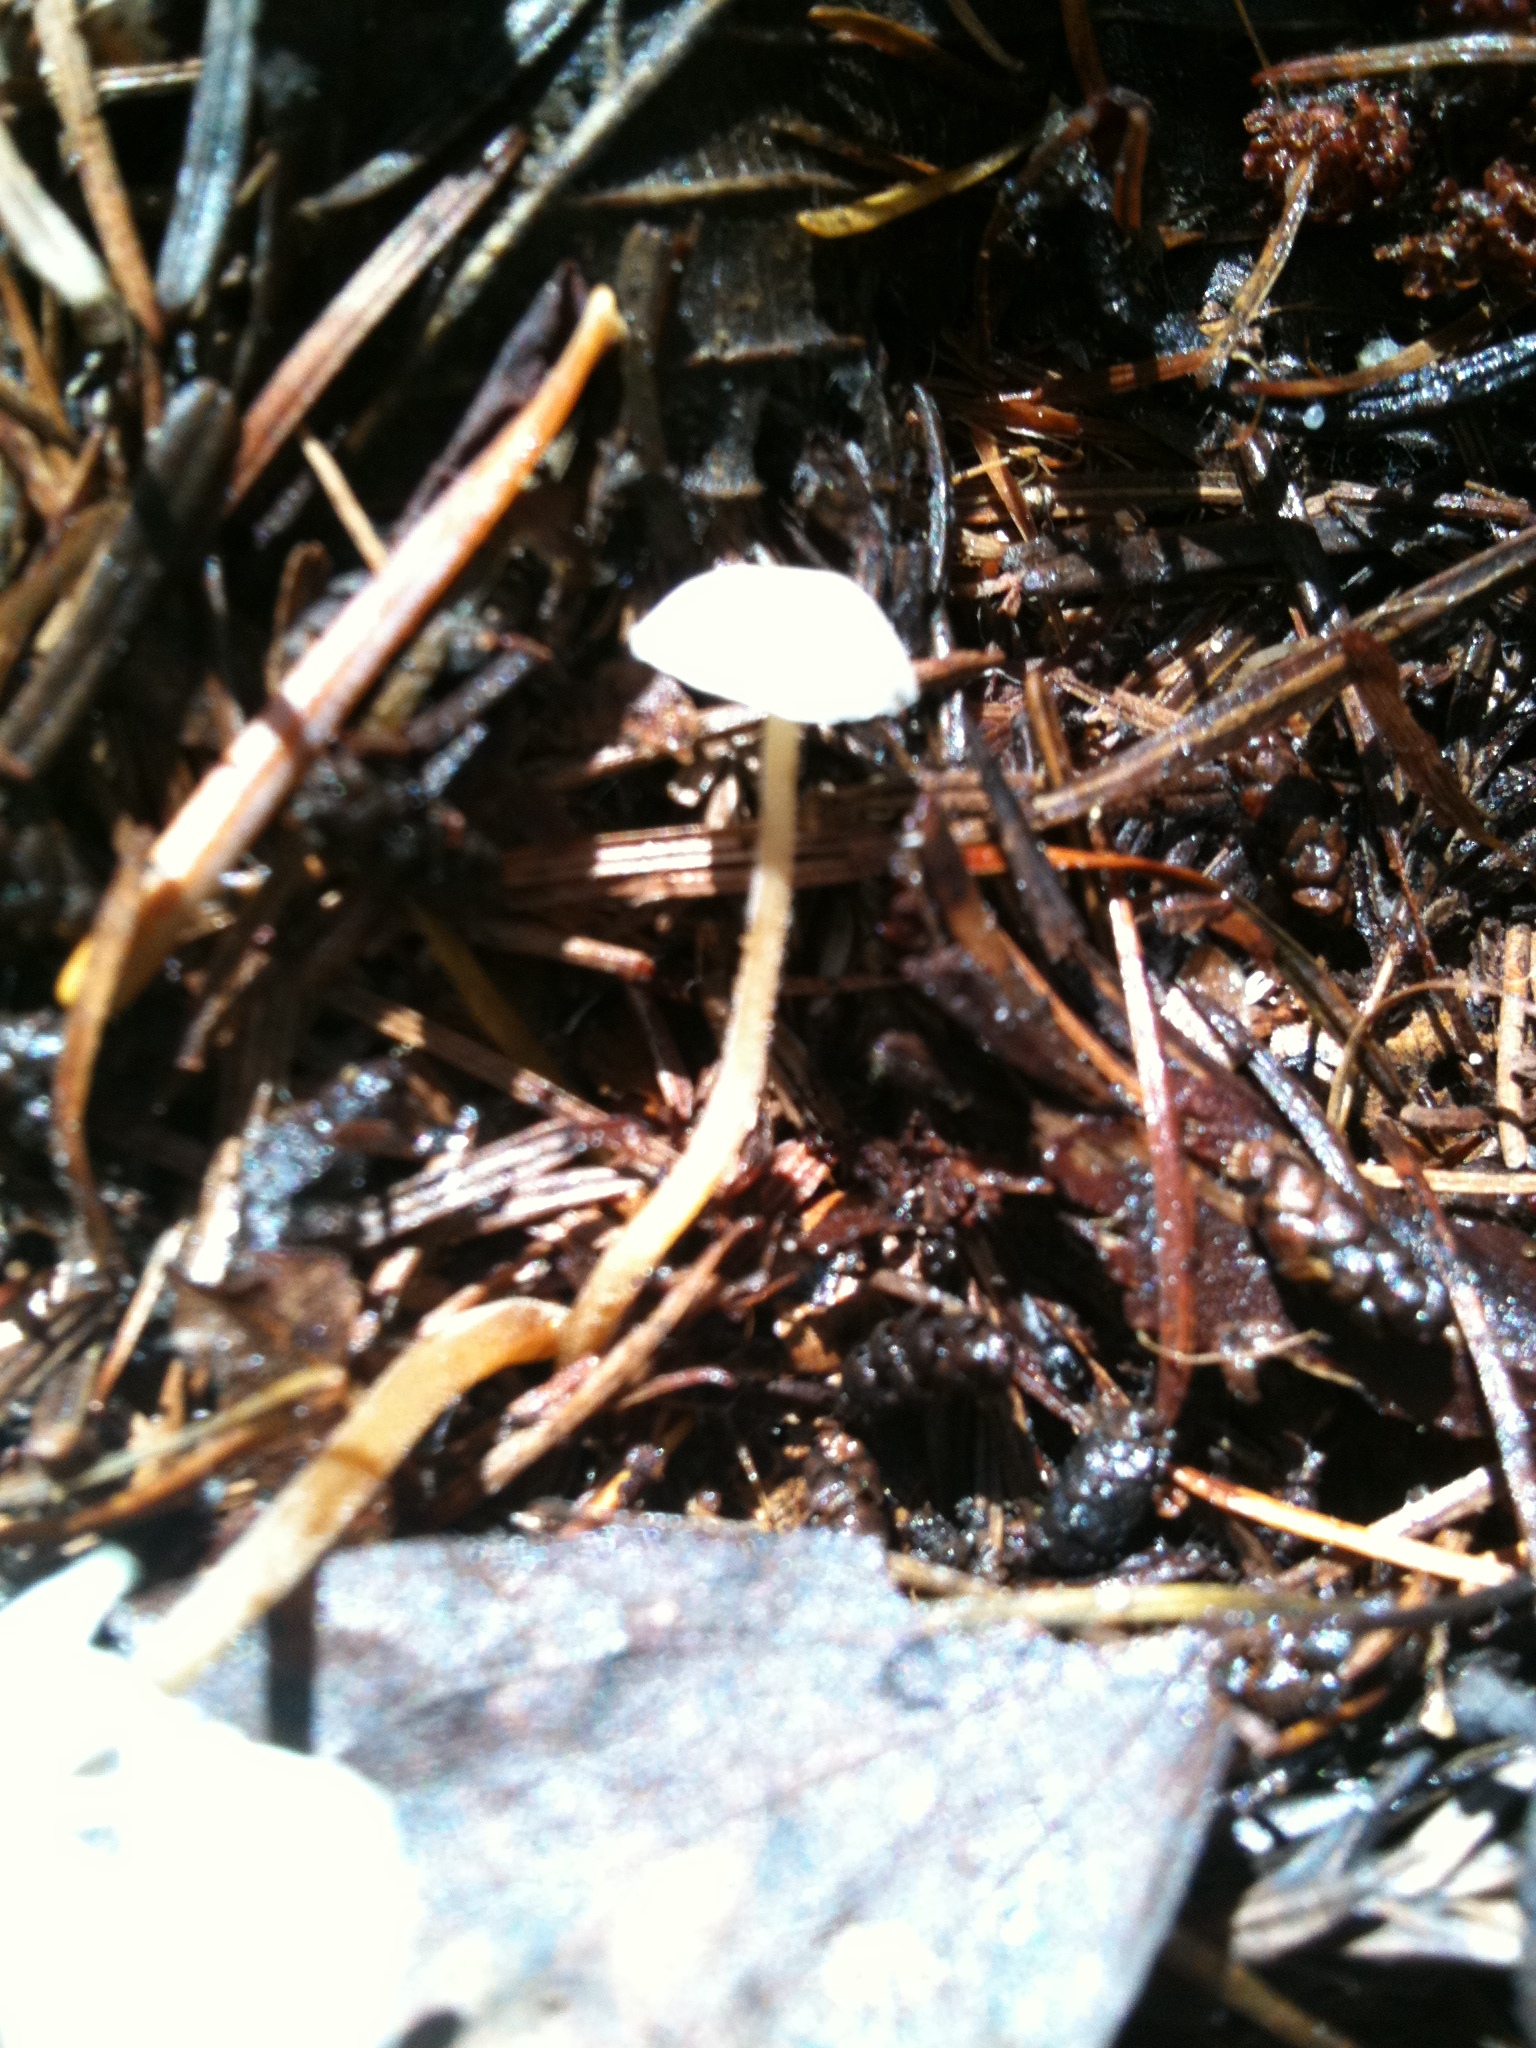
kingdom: Fungi
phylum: Basidiomycota
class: Agaricomycetes
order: Agaricales
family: Physalacriaceae
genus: Strobilurus
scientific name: Strobilurus ohshimae
